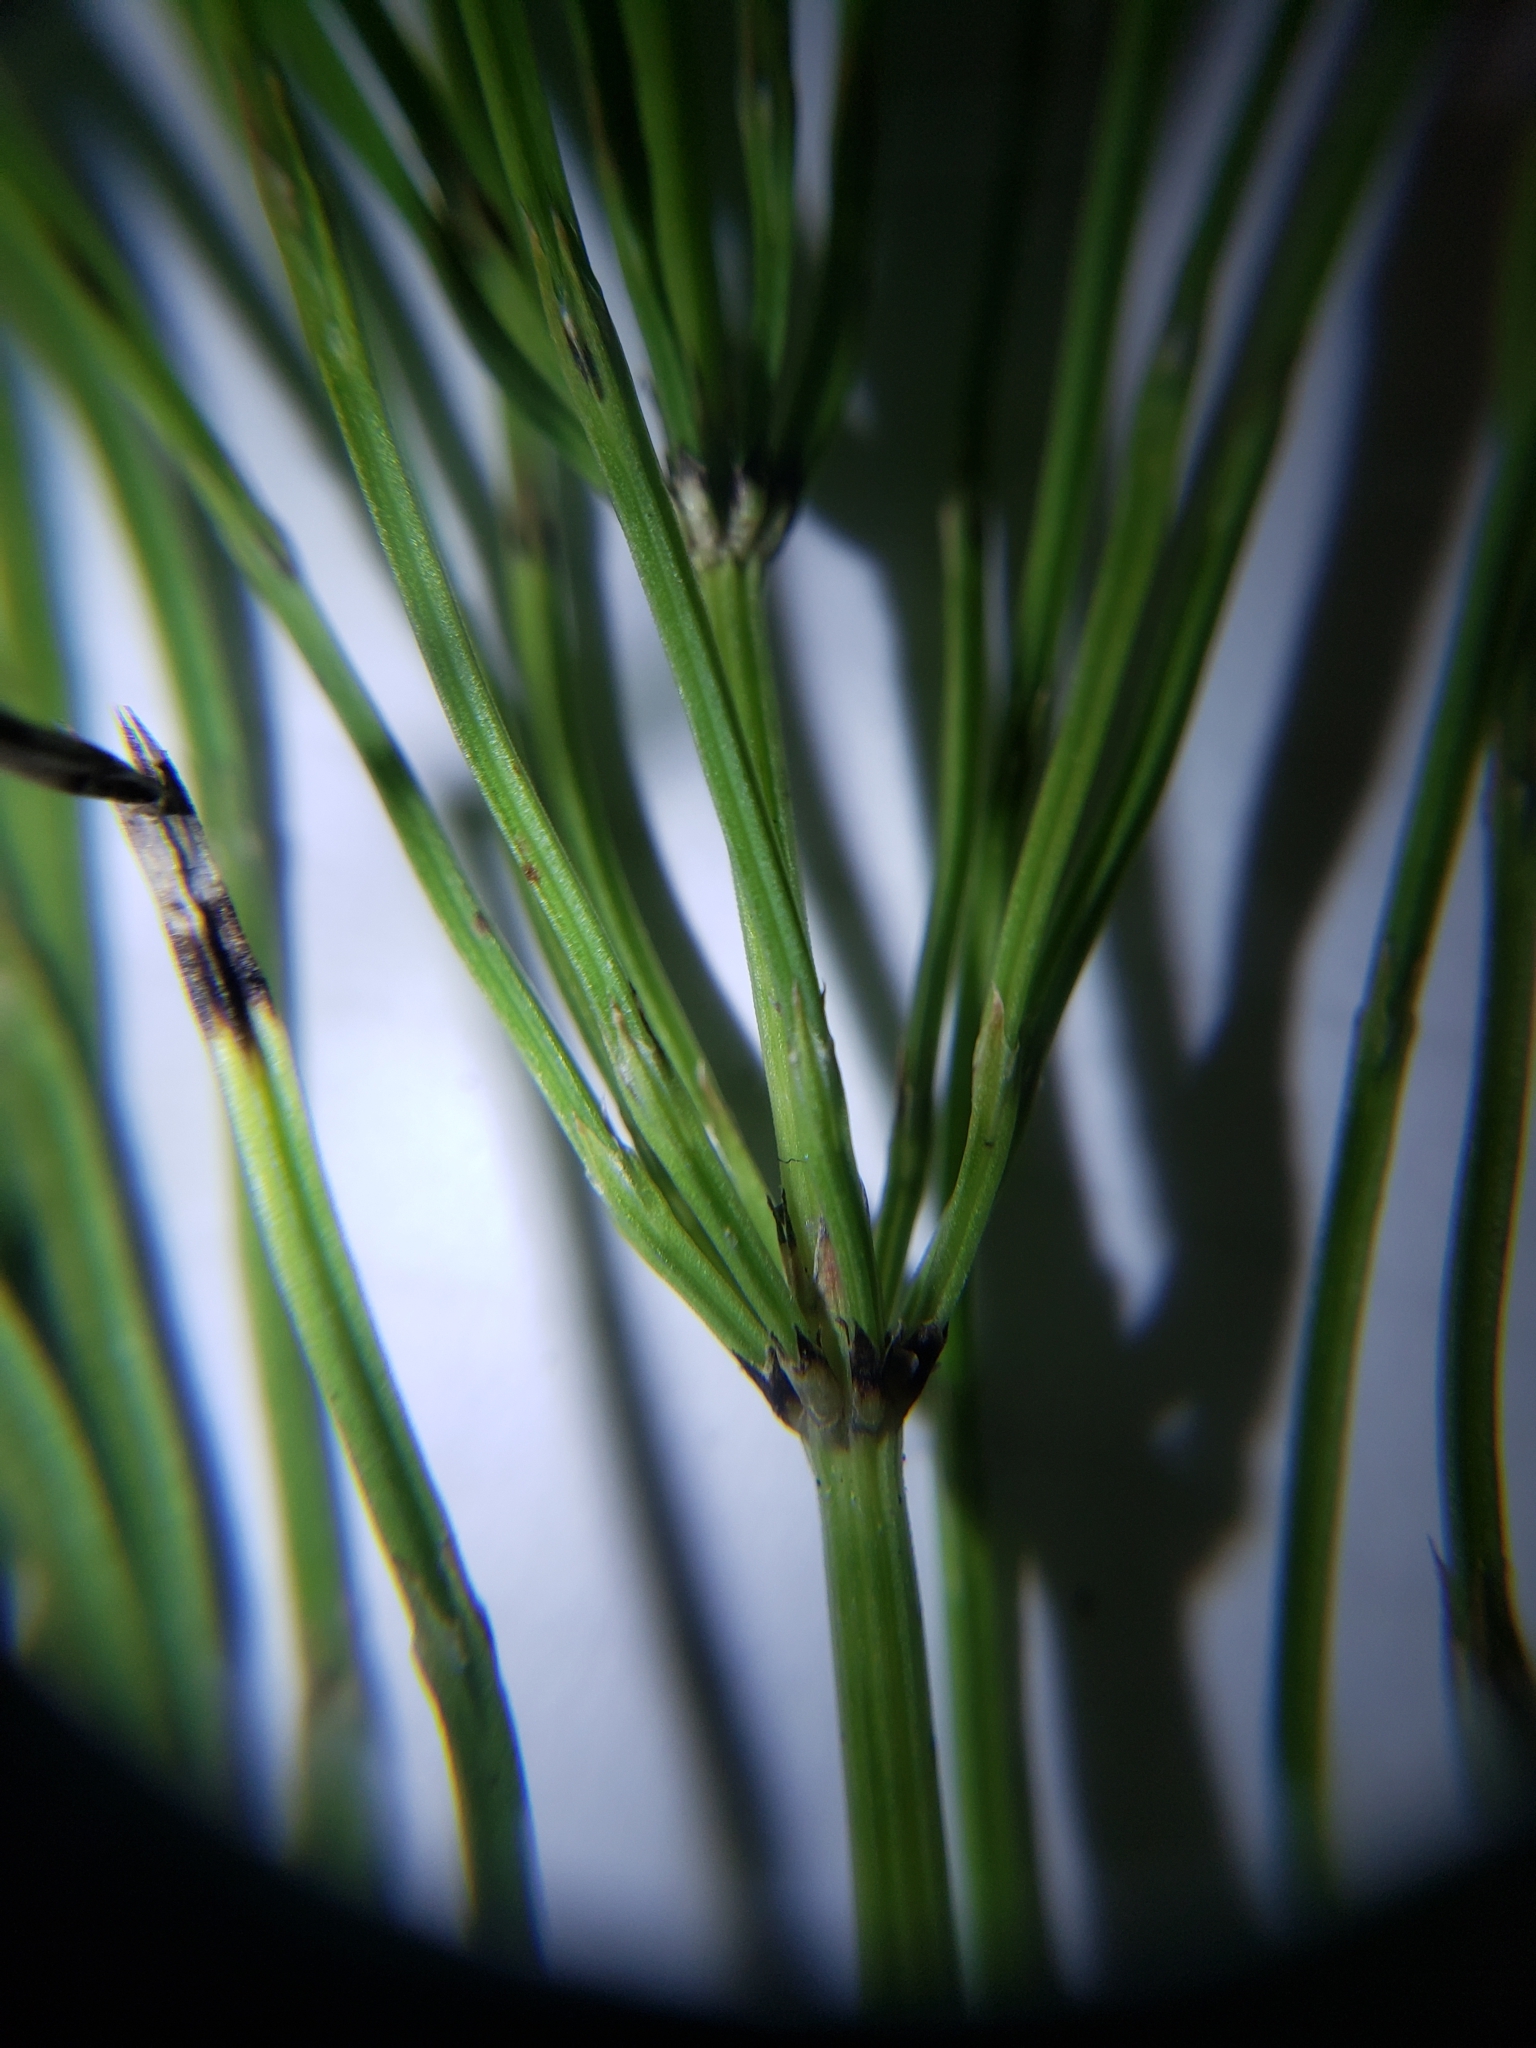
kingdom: Plantae
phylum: Tracheophyta
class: Polypodiopsida
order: Equisetales
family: Equisetaceae
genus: Equisetum
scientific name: Equisetum arvense
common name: Field horsetail
